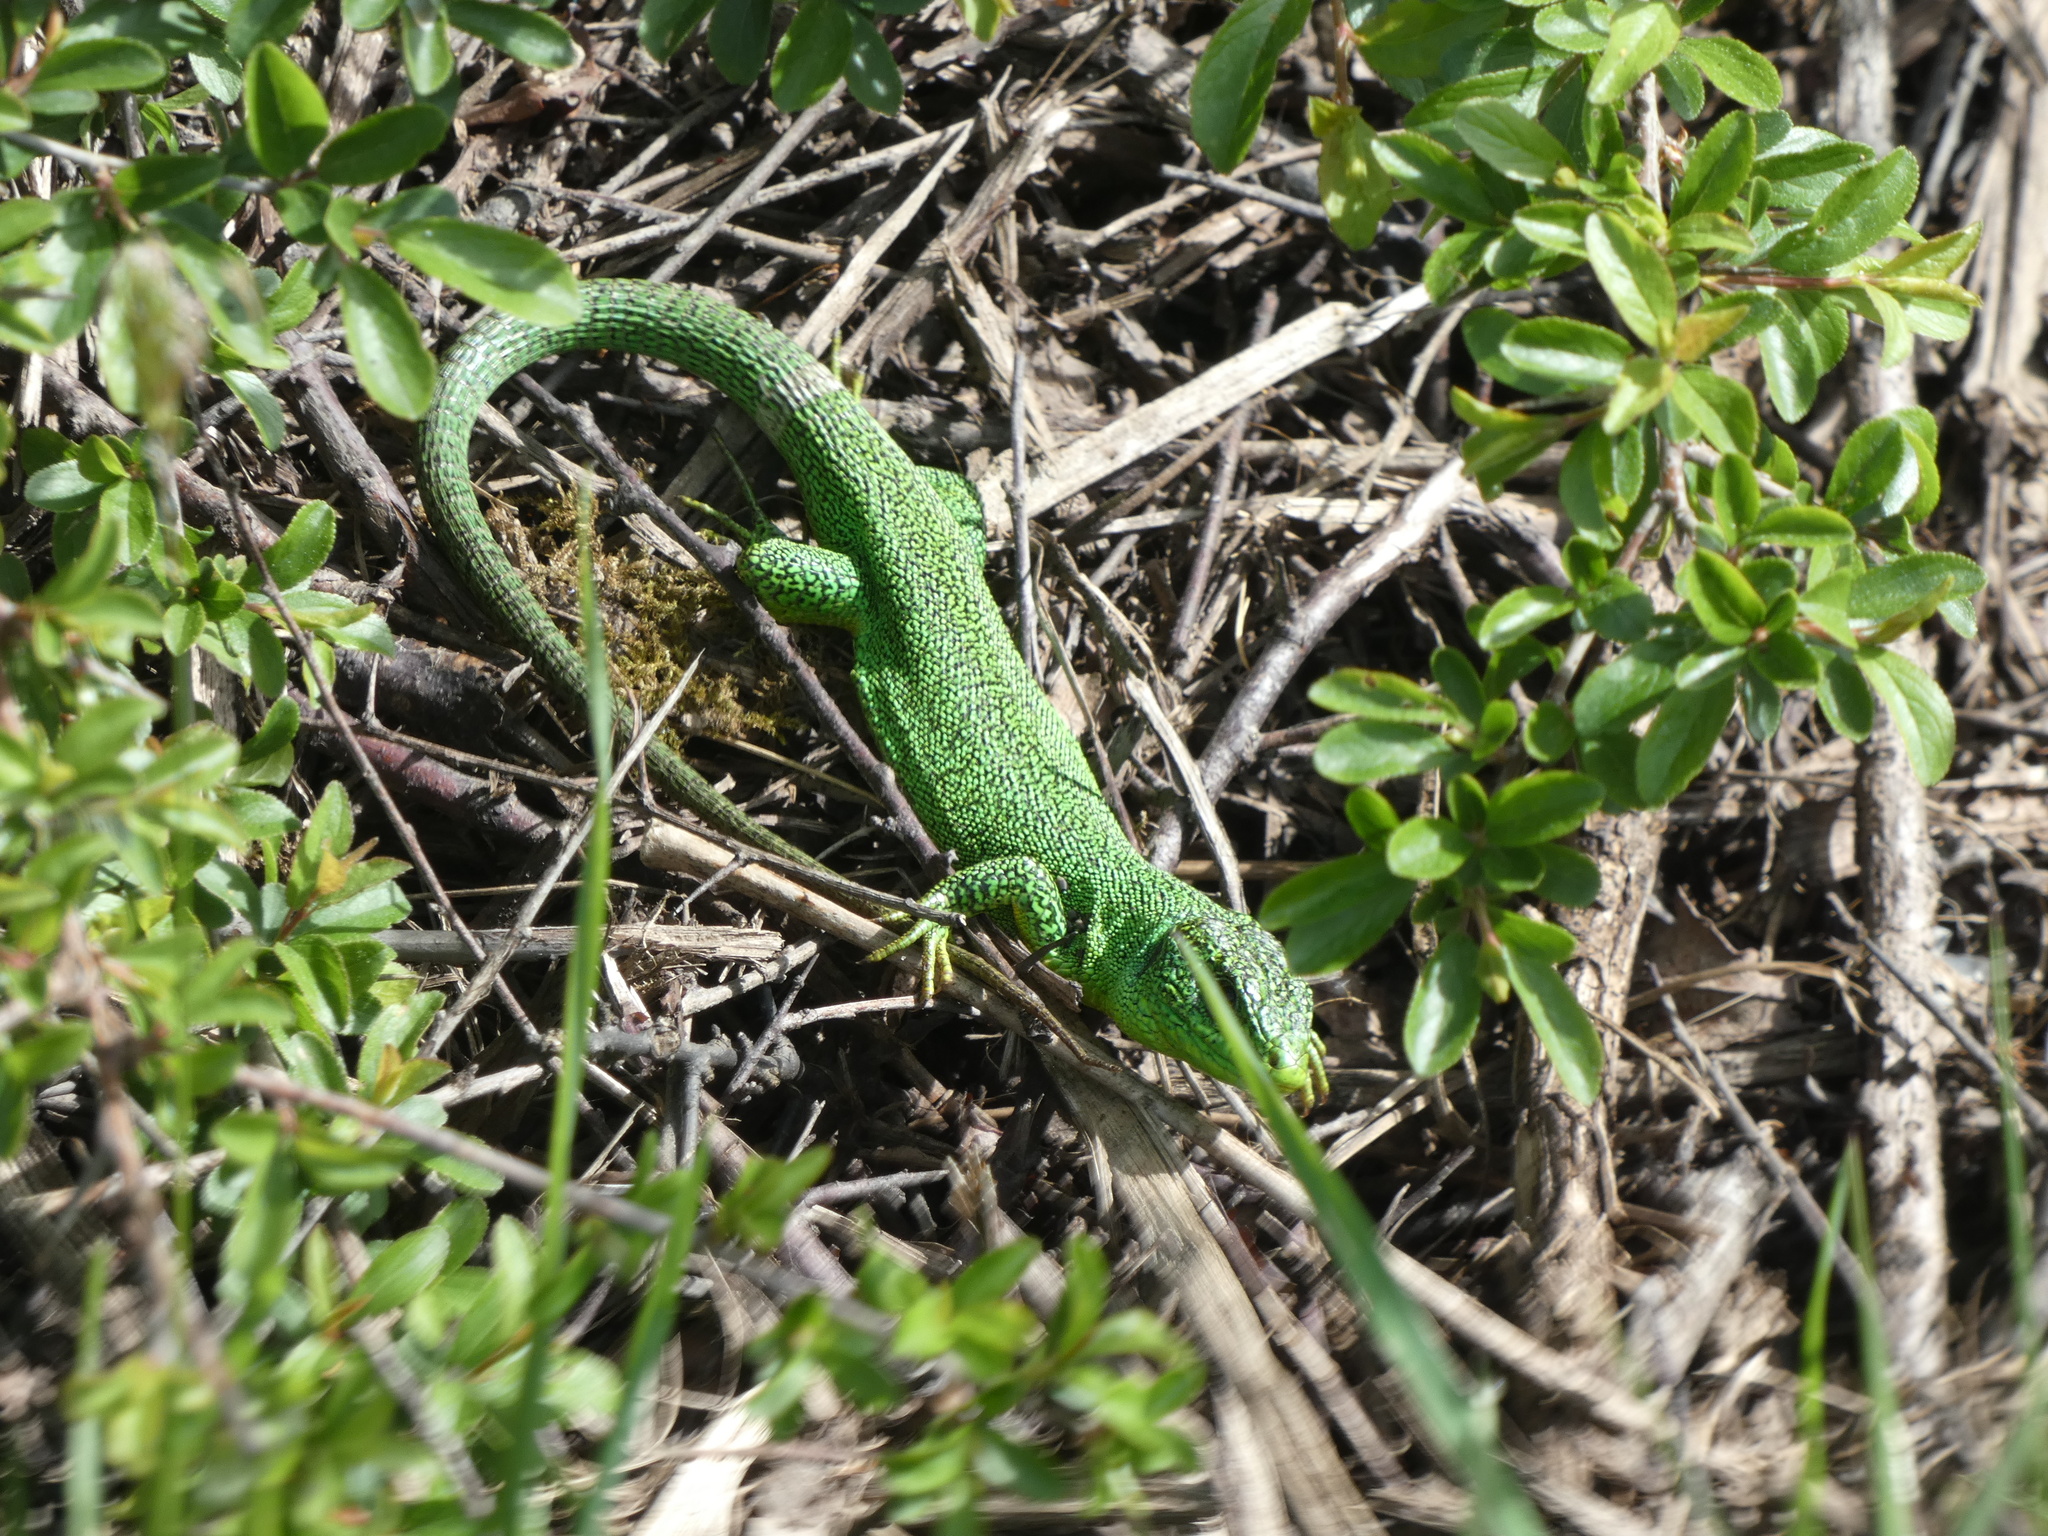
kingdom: Animalia
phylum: Chordata
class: Squamata
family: Lacertidae
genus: Lacerta
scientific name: Lacerta bilineata
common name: Western green lizard
